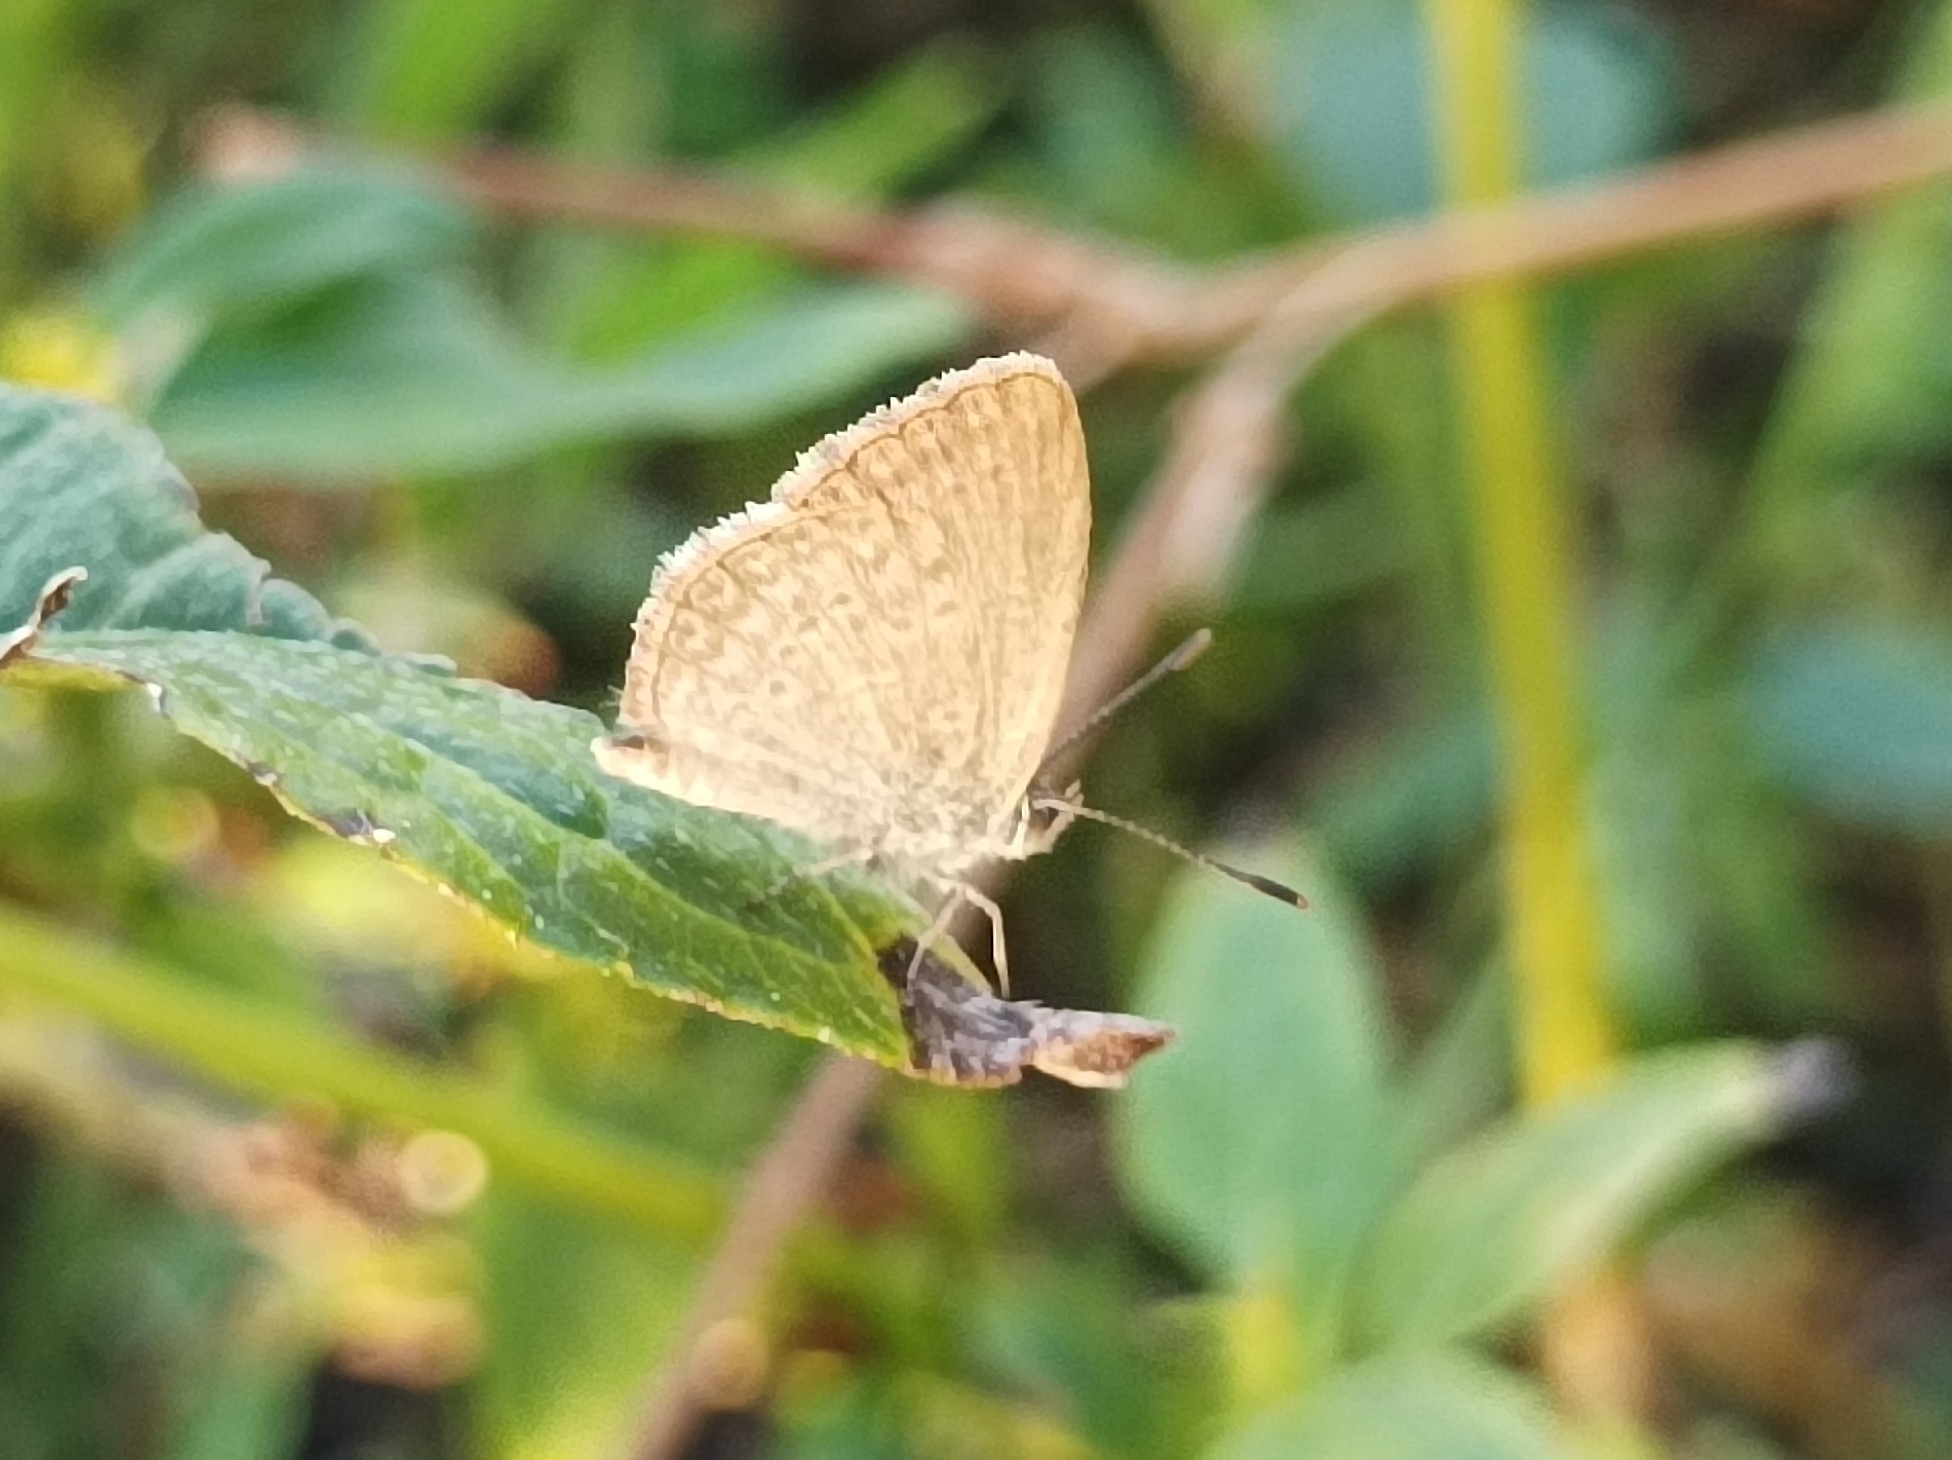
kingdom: Animalia
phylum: Arthropoda
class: Insecta
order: Lepidoptera
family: Lycaenidae
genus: Zizina
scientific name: Zizina labradus
